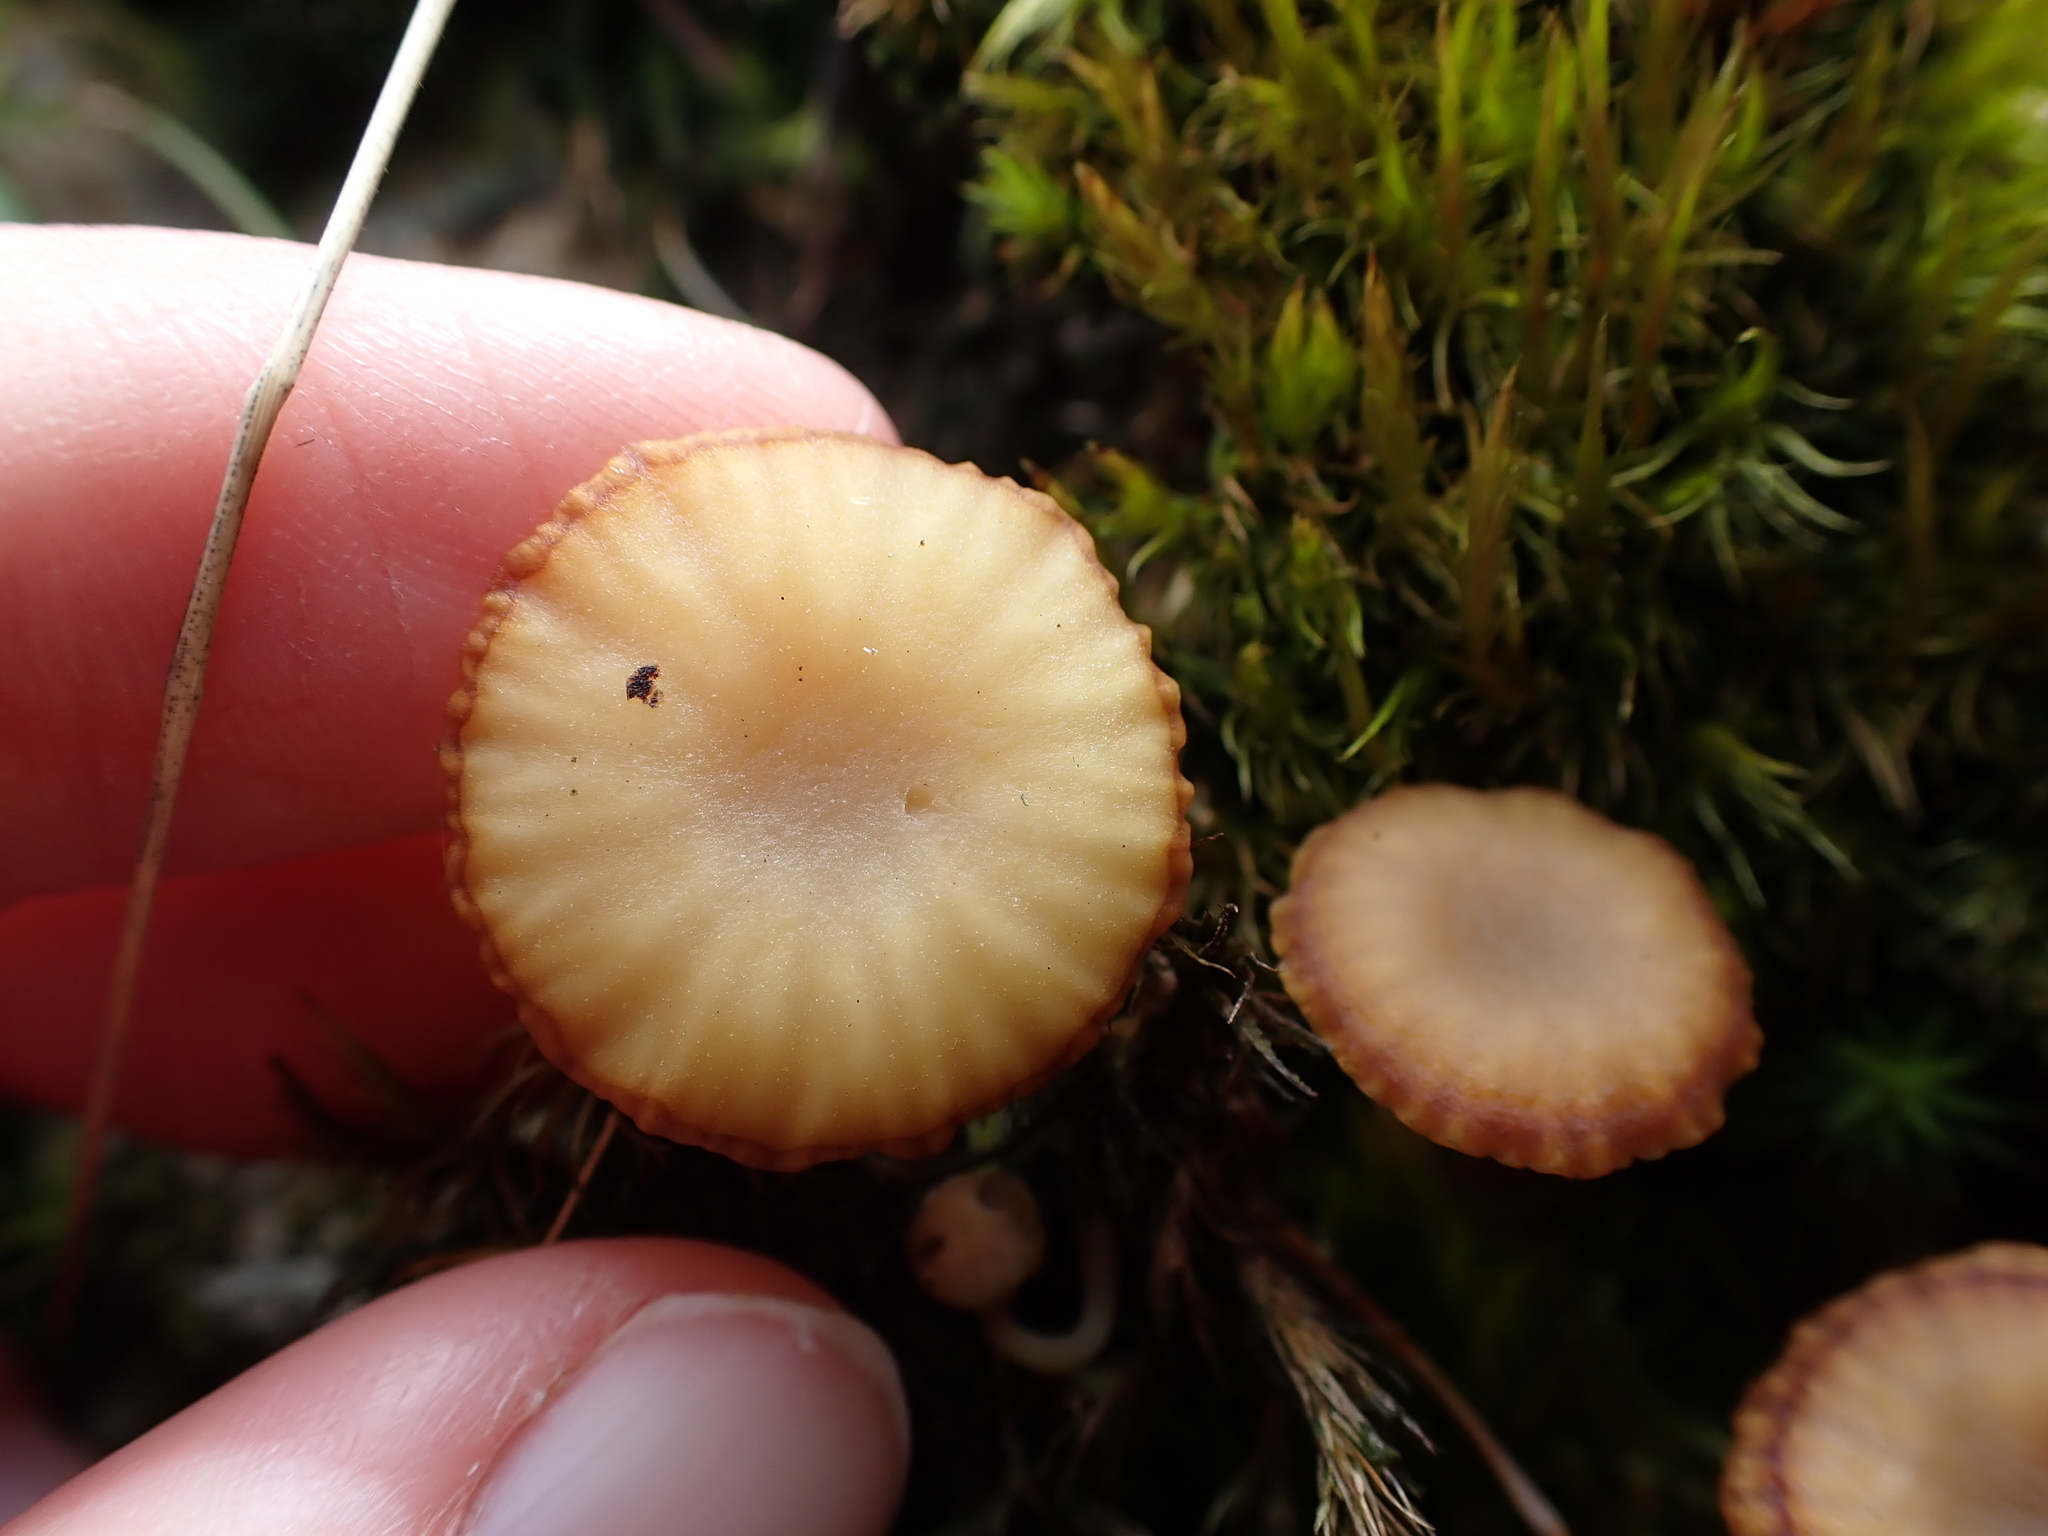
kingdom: Fungi
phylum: Basidiomycota
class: Agaricomycetes
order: Agaricales
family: Hygrophoraceae
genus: Lichenomphalia
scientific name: Lichenomphalia
